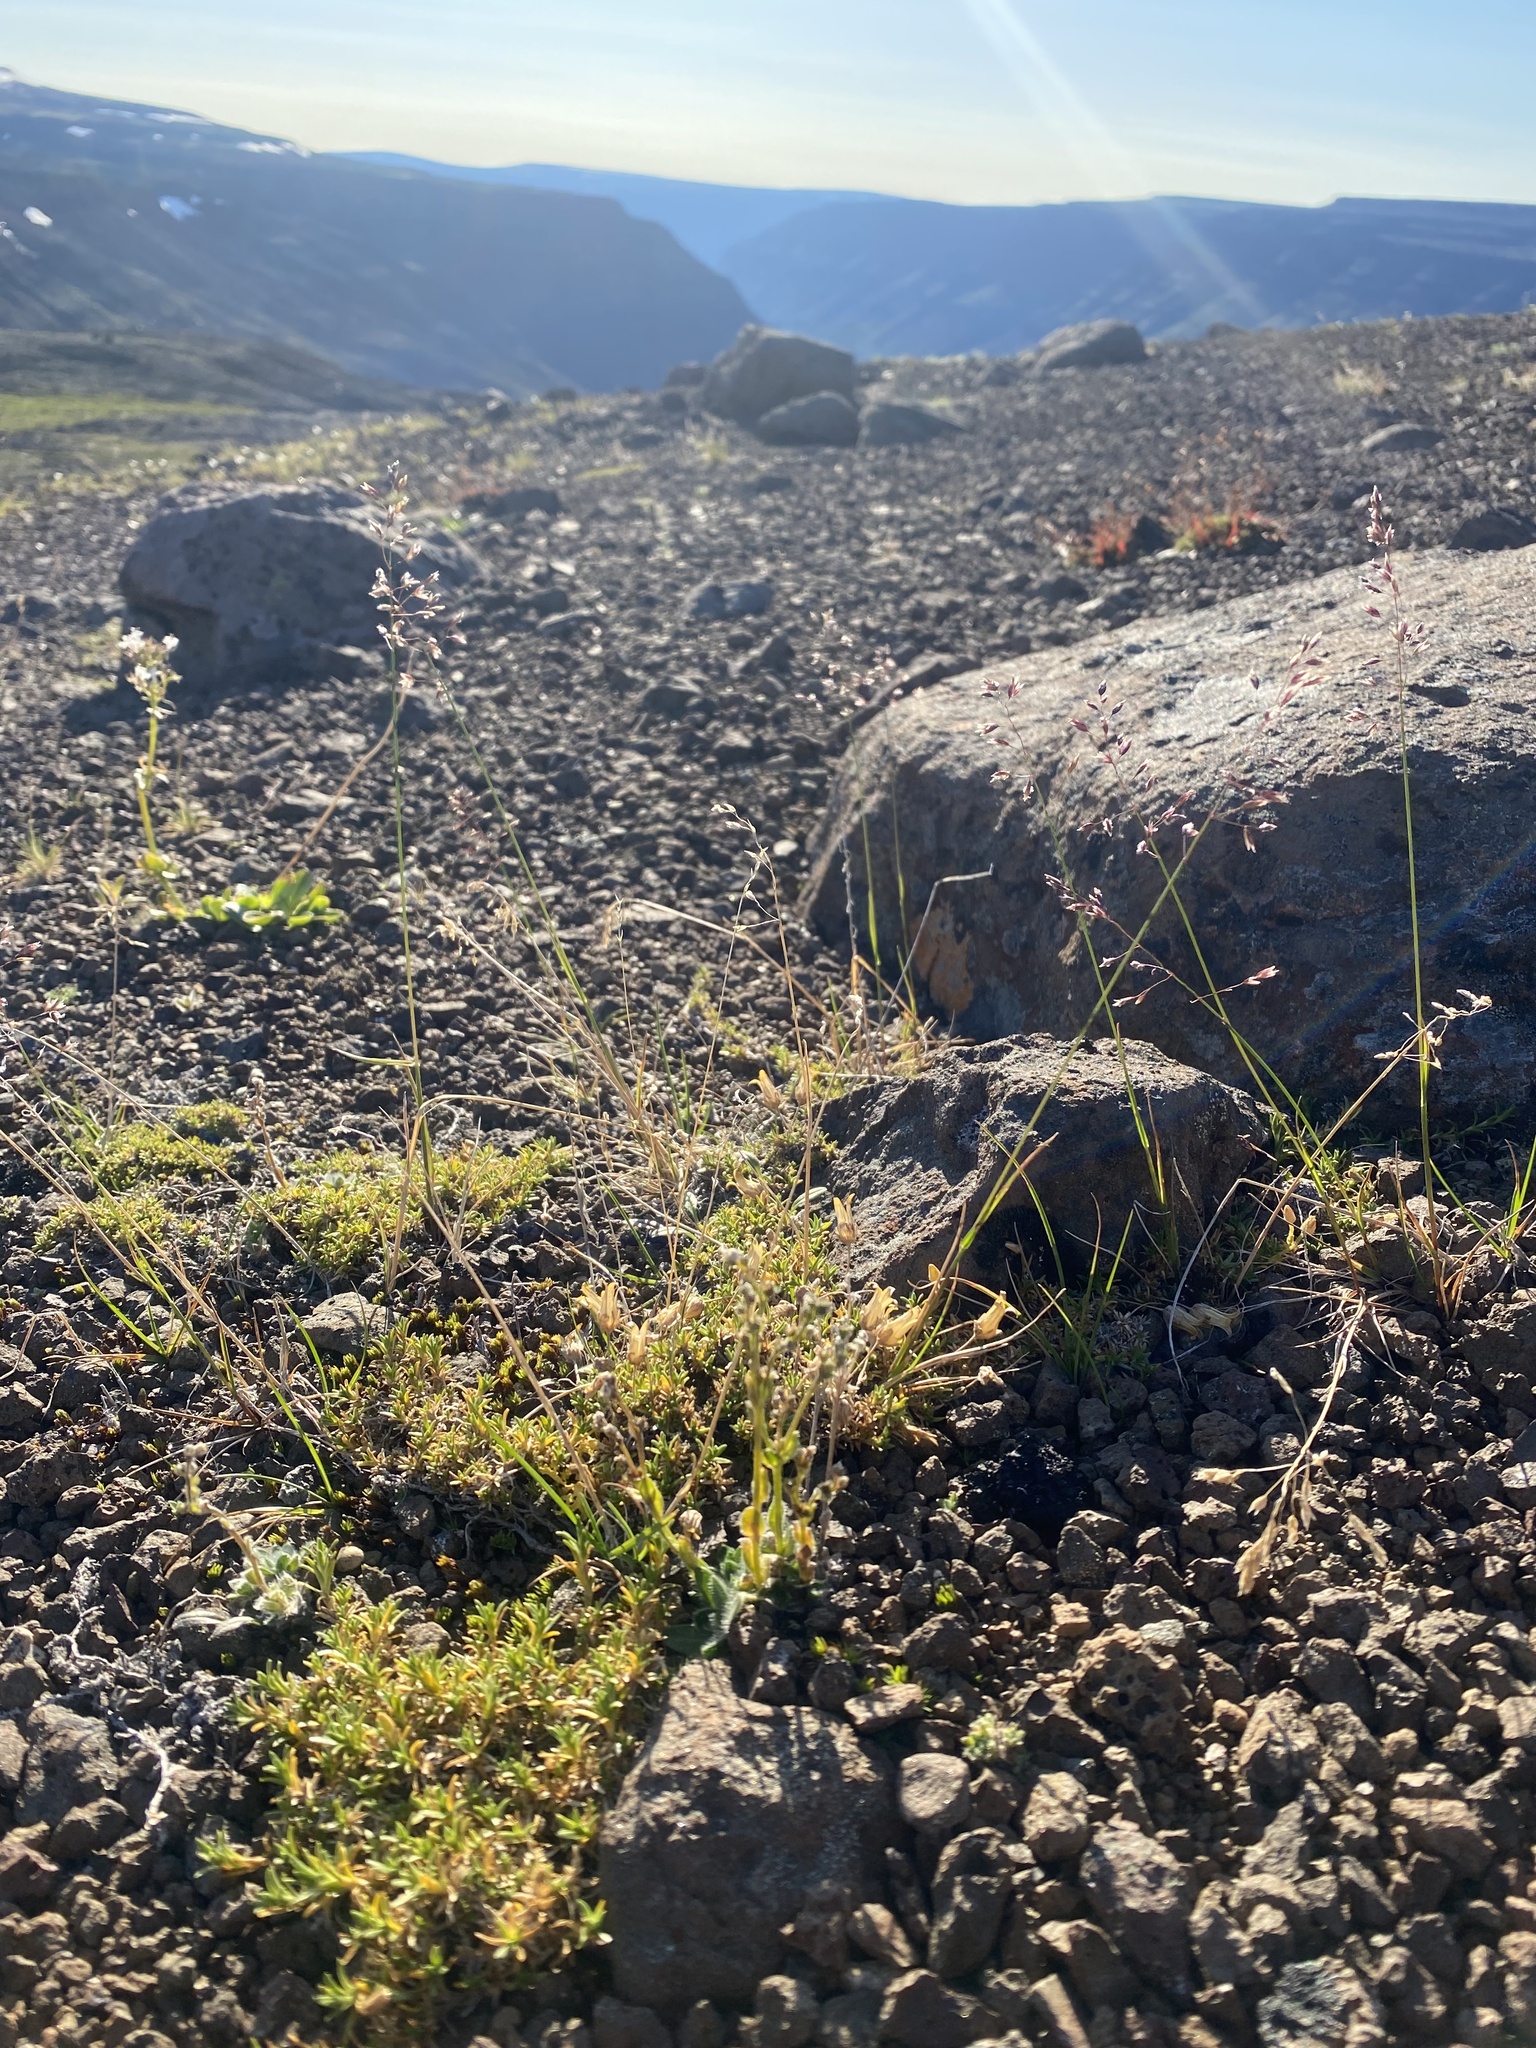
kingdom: Plantae
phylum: Tracheophyta
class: Liliopsida
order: Poales
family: Poaceae
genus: Poa
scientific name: Poa arctica
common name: Arctic bluegrass
